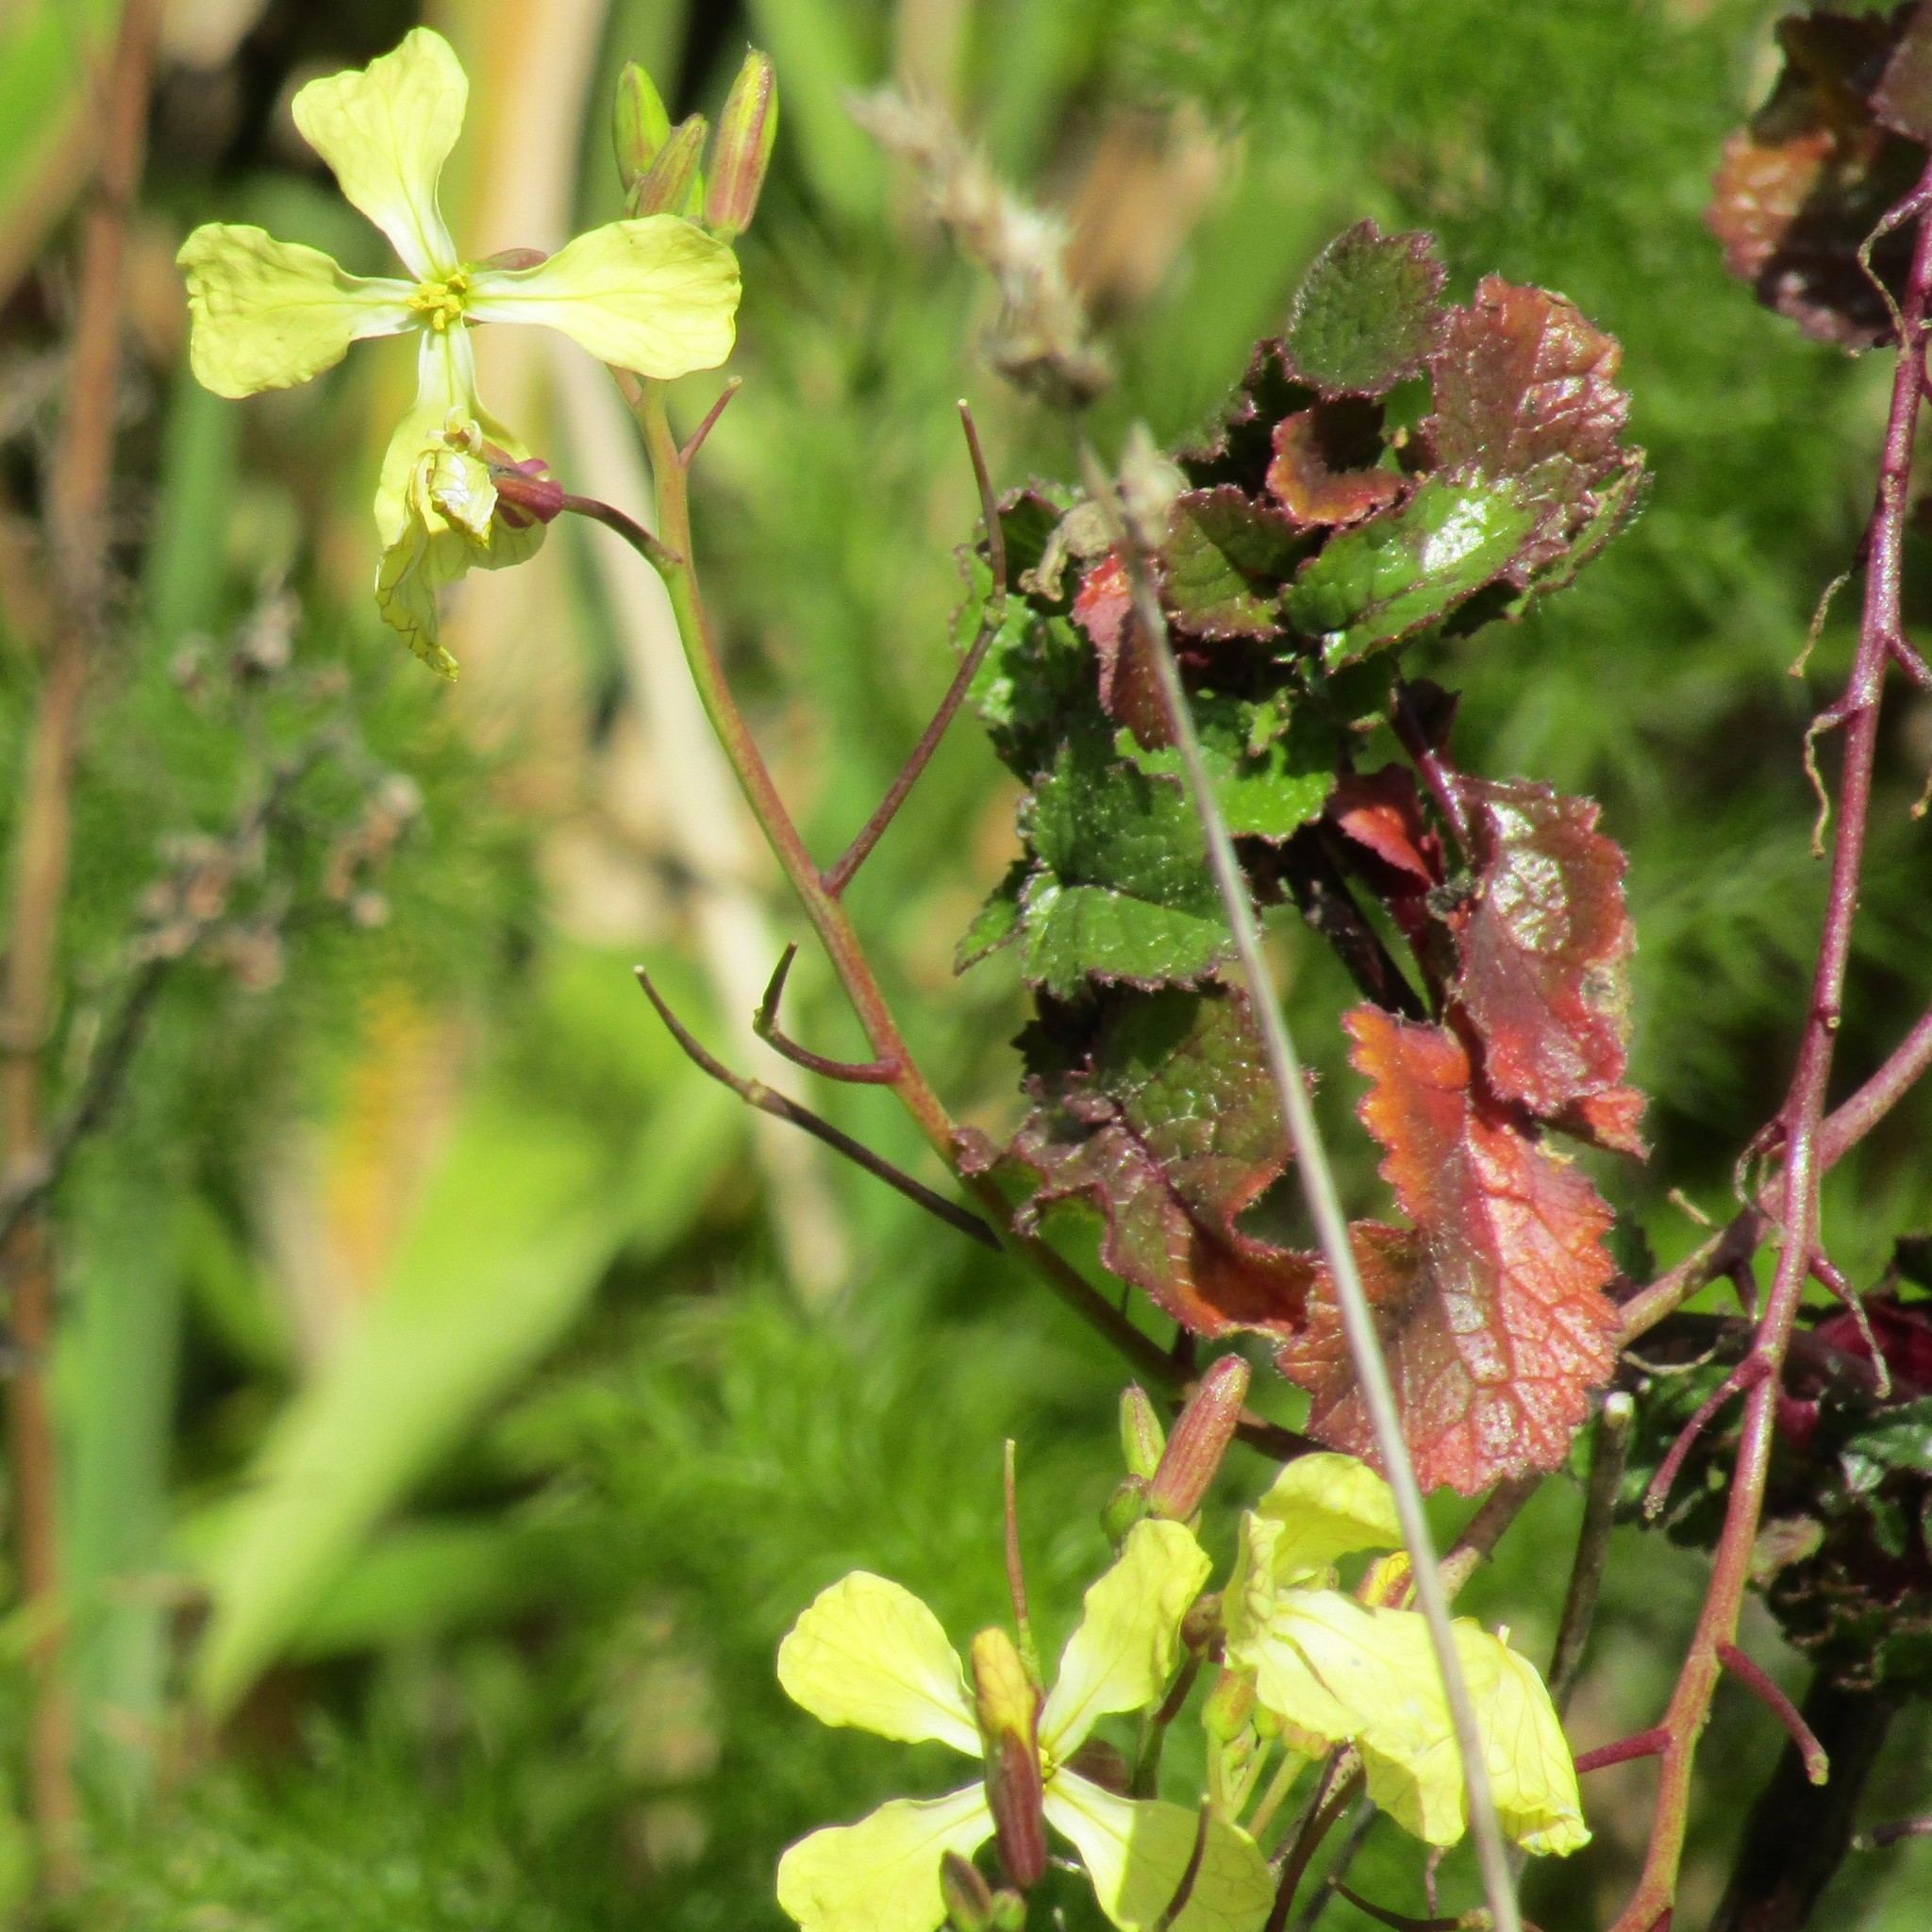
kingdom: Plantae
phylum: Tracheophyta
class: Magnoliopsida
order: Brassicales
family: Brassicaceae
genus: Raphanus
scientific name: Raphanus raphanistrum
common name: Wild radish
